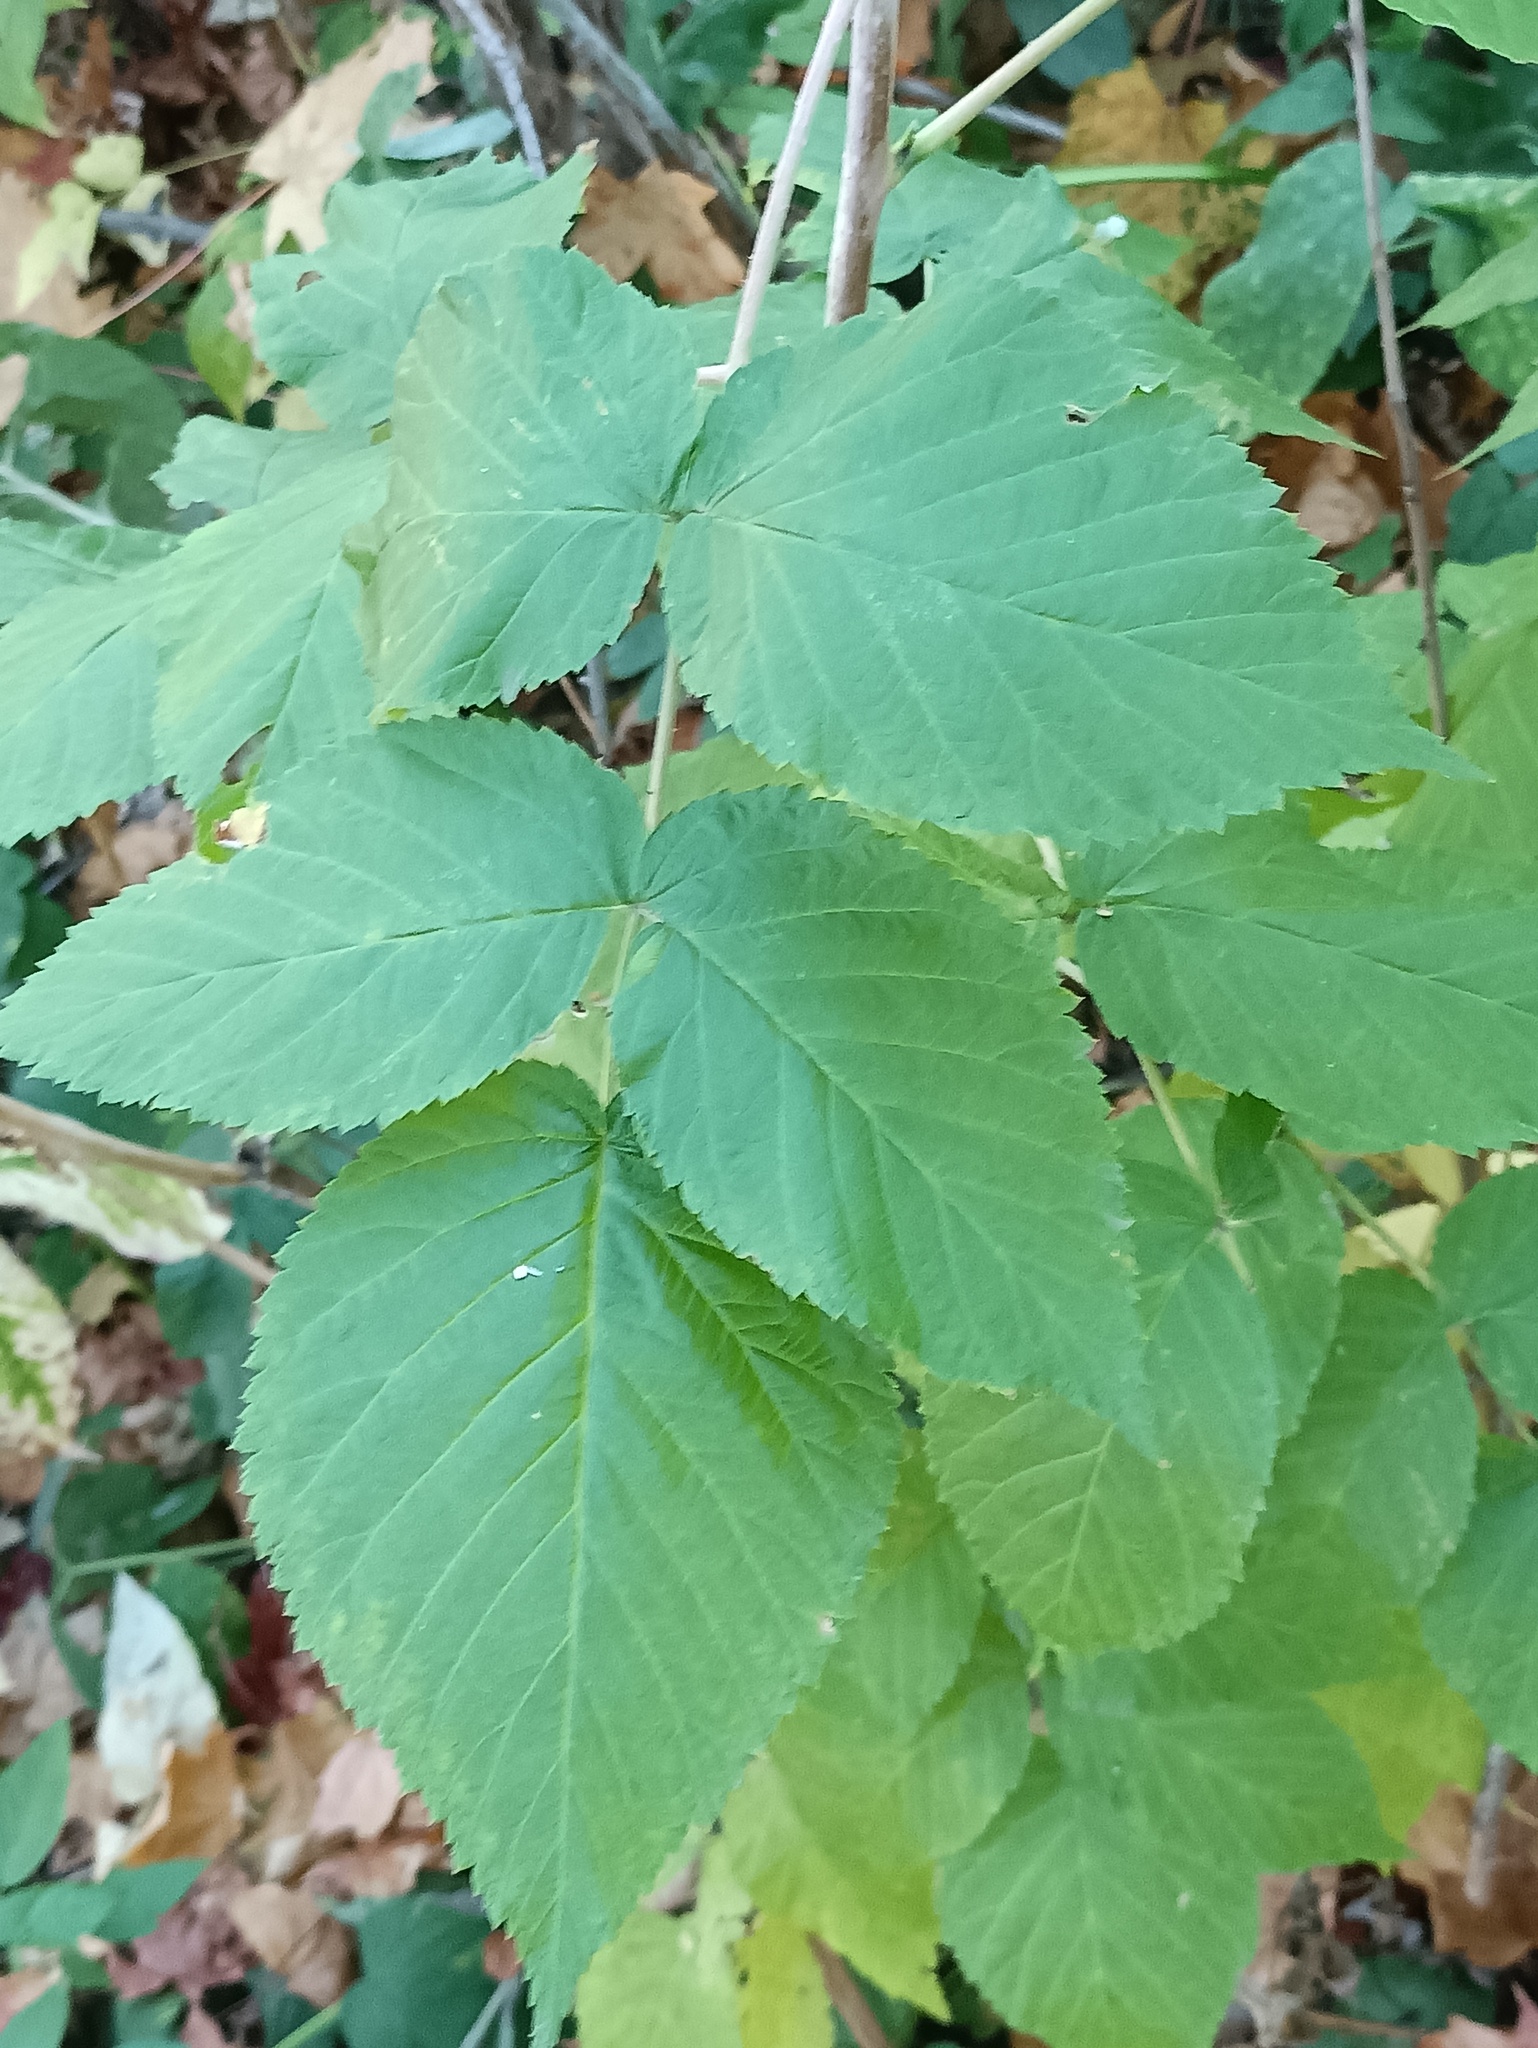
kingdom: Plantae
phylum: Tracheophyta
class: Magnoliopsida
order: Rosales
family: Rosaceae
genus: Rubus
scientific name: Rubus idaeus
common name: Raspberry
